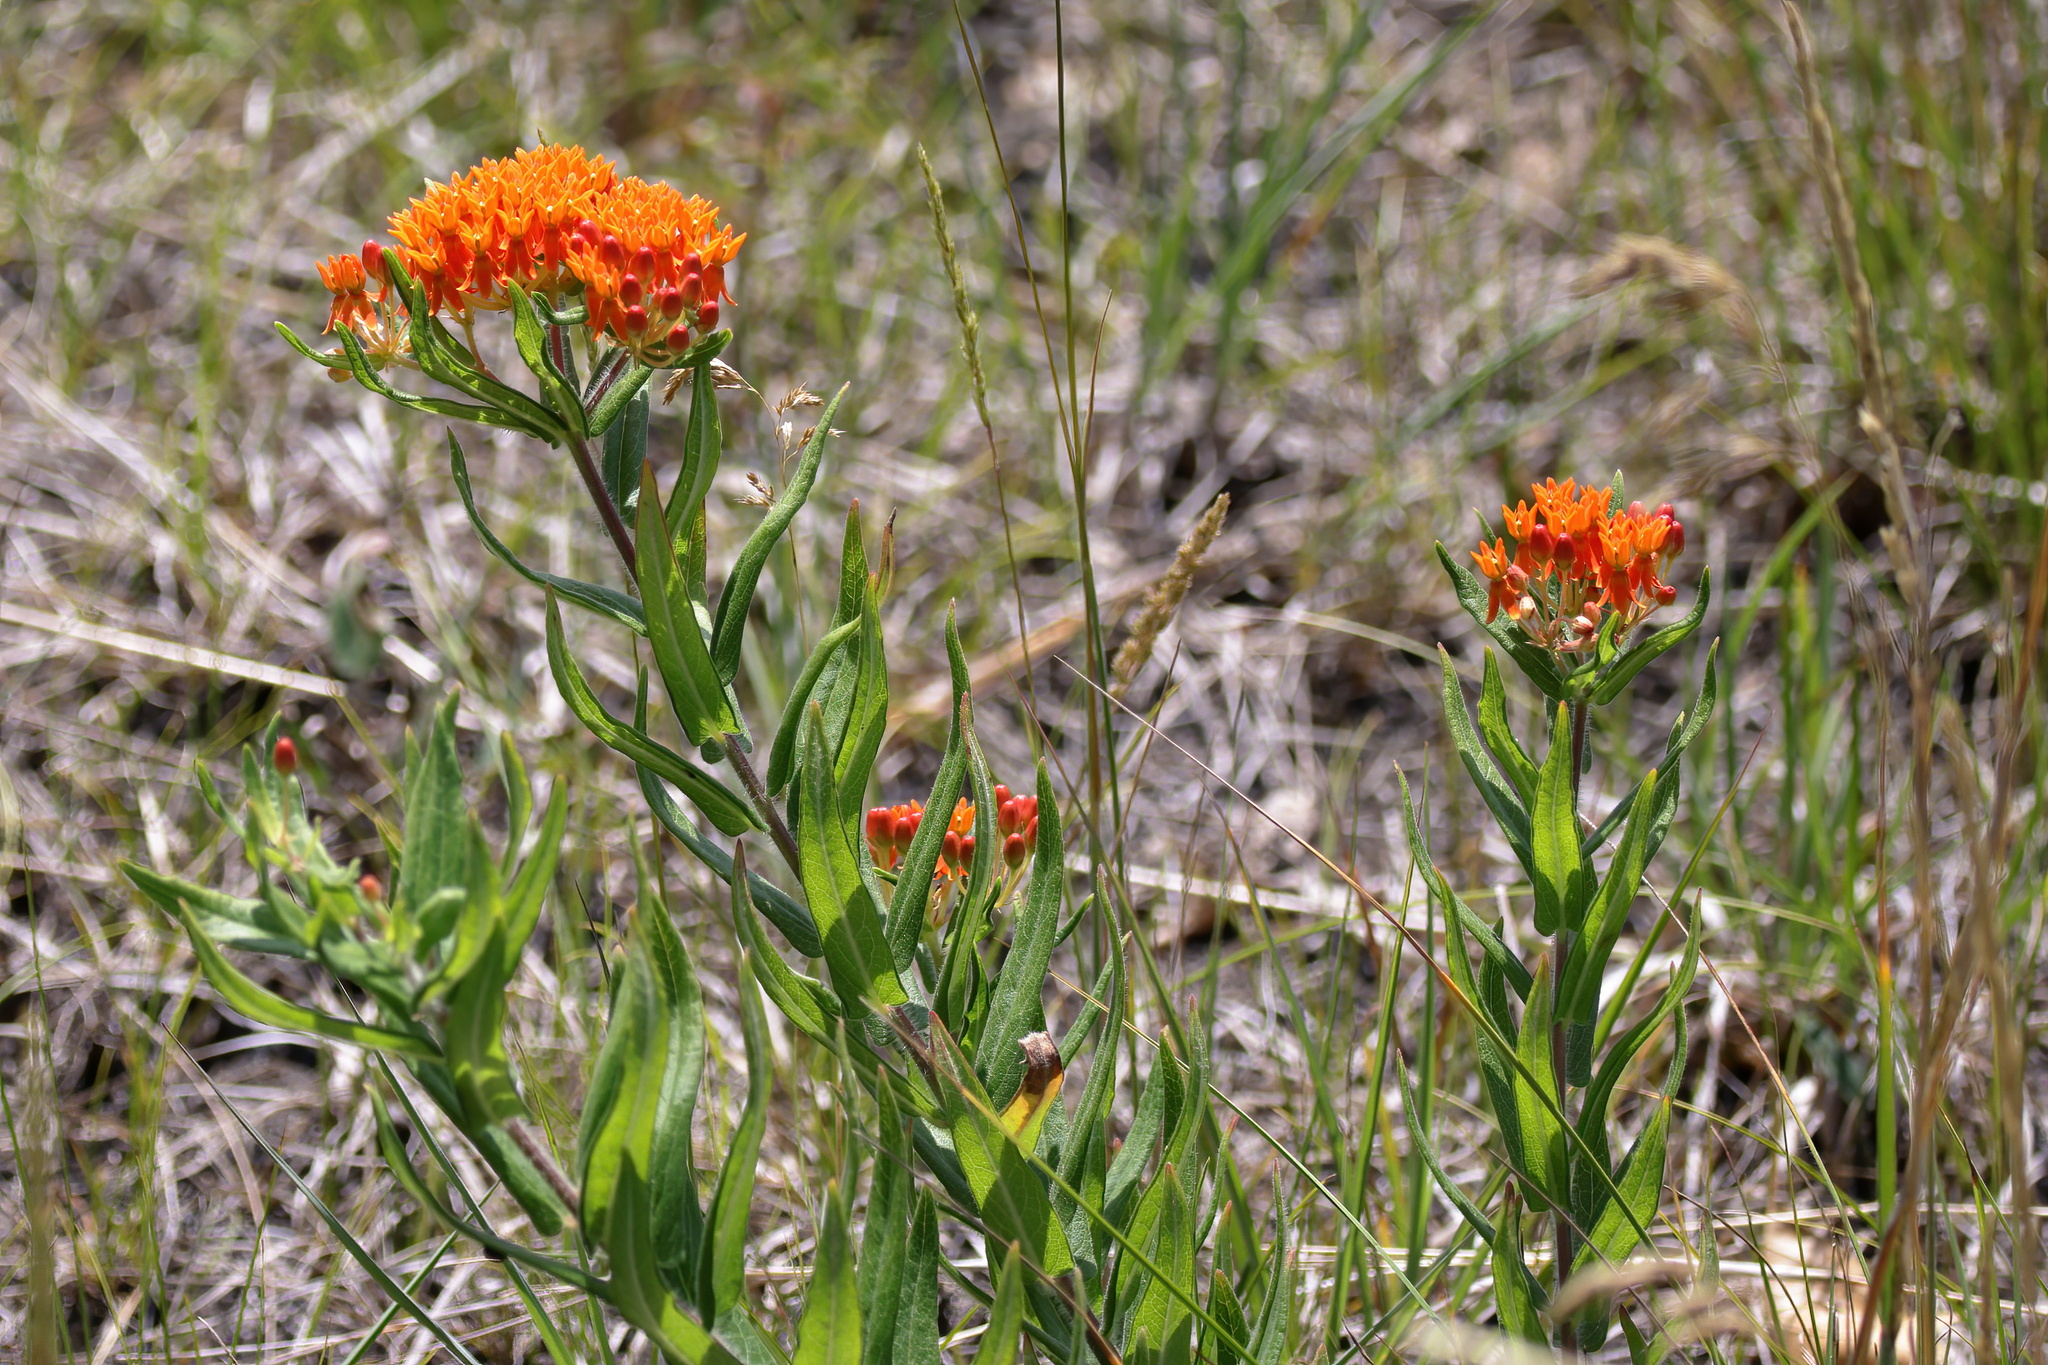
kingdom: Plantae
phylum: Tracheophyta
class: Magnoliopsida
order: Gentianales
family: Apocynaceae
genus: Asclepias
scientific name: Asclepias tuberosa
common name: Butterfly milkweed
